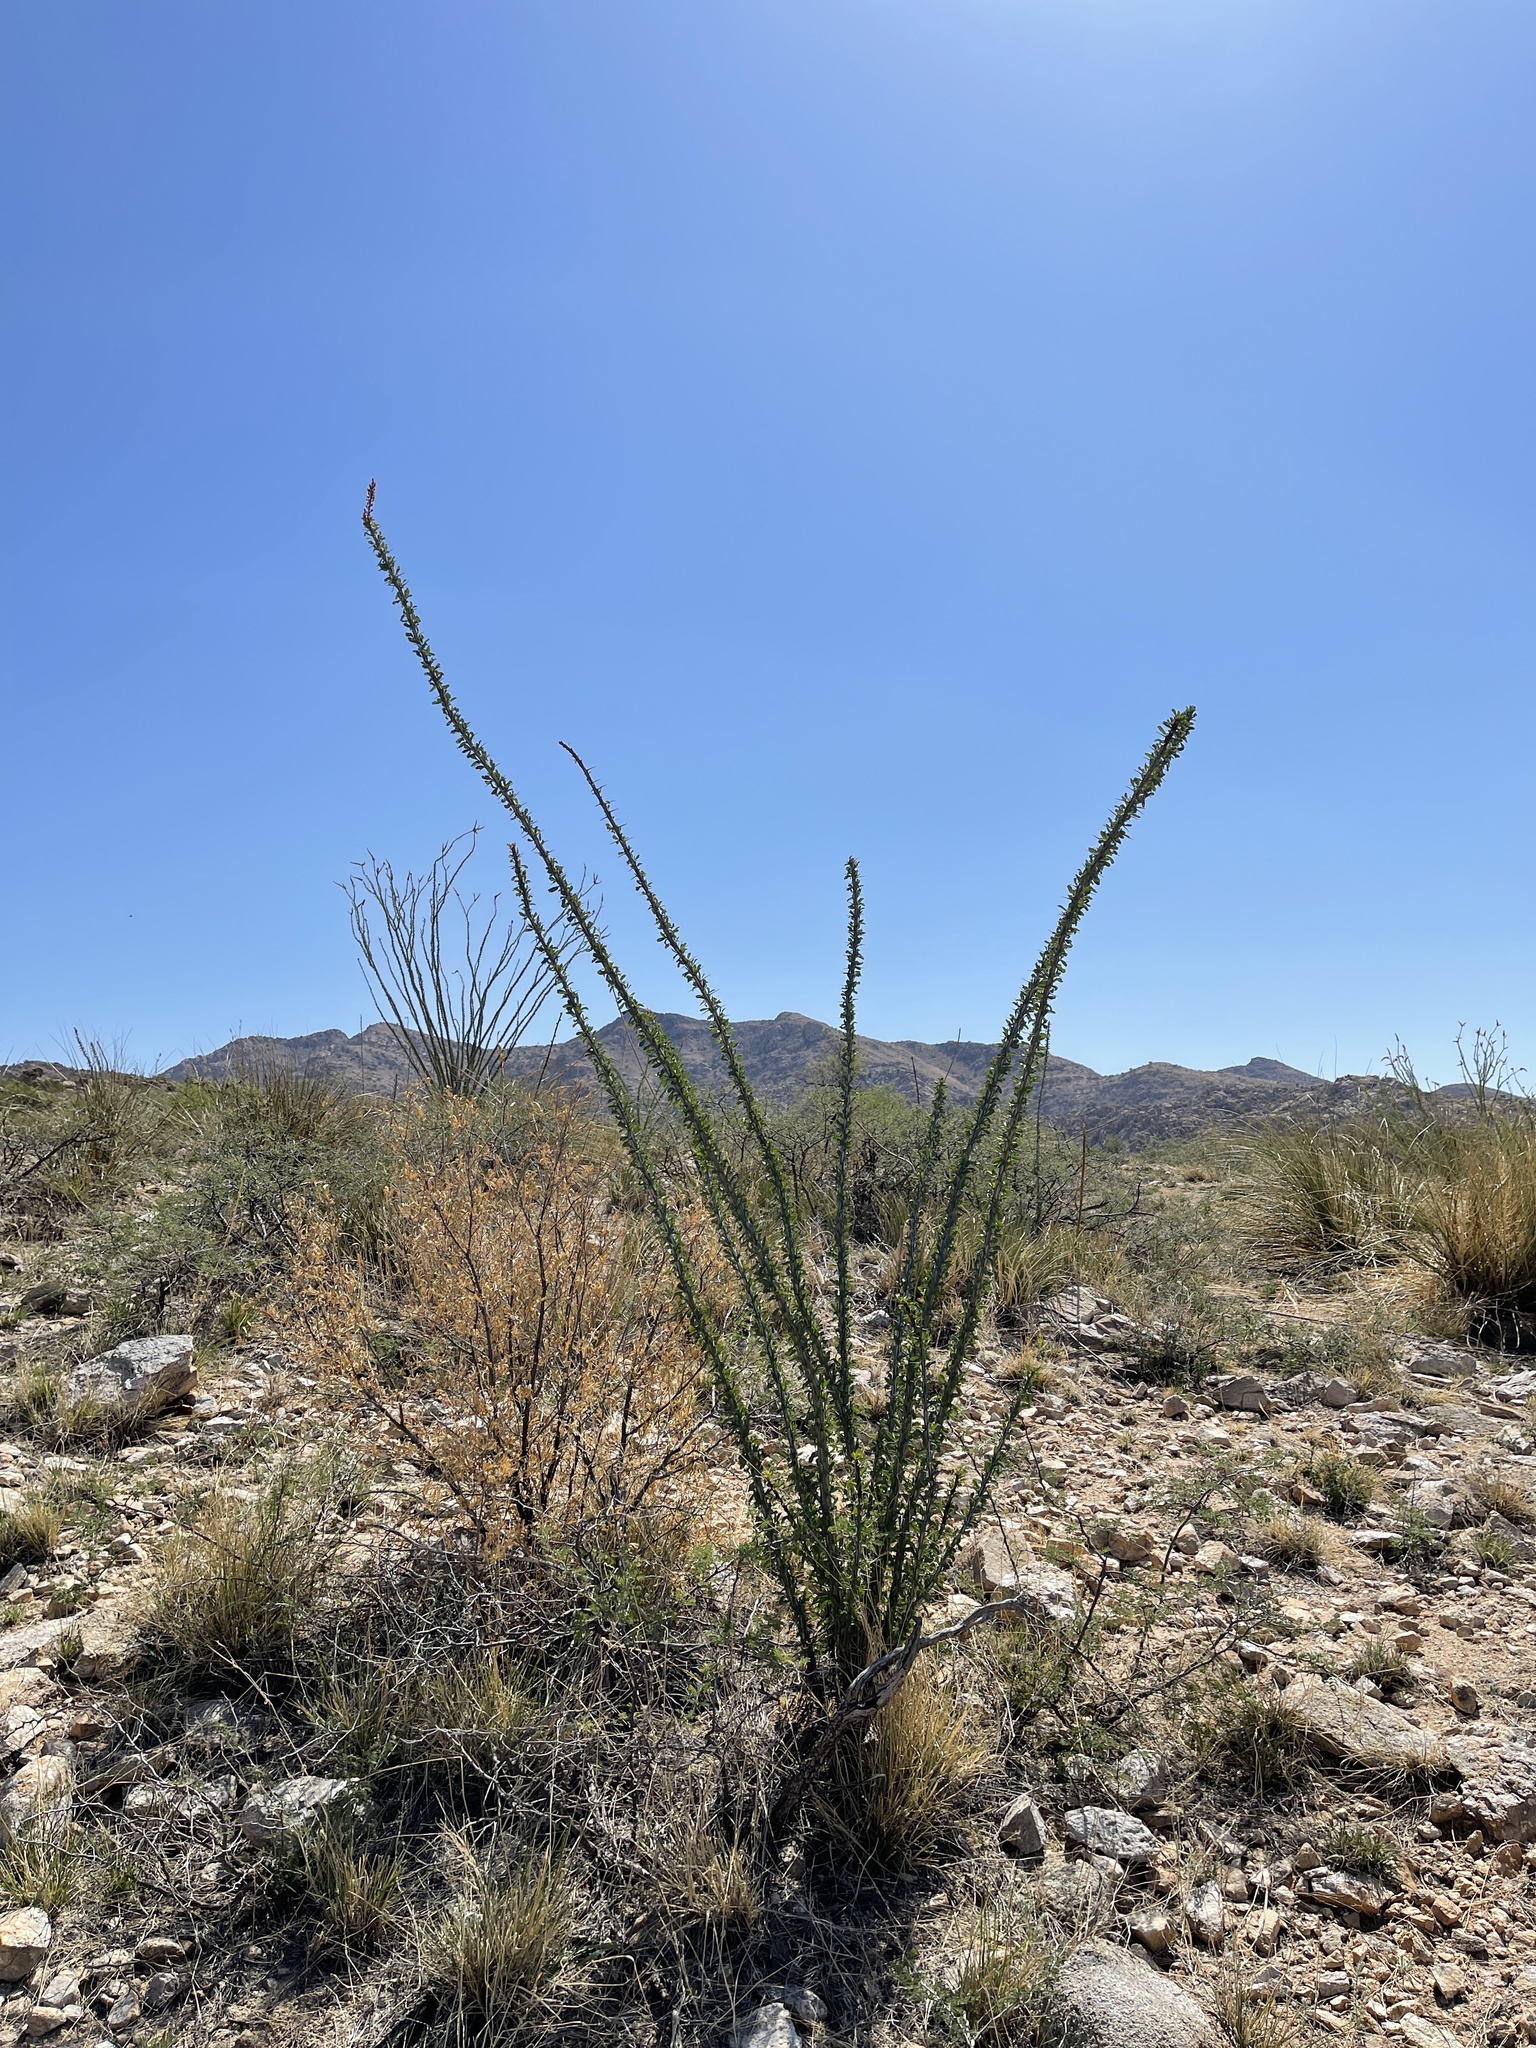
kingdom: Plantae
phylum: Tracheophyta
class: Magnoliopsida
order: Ericales
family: Fouquieriaceae
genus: Fouquieria
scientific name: Fouquieria splendens
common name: Vine-cactus
